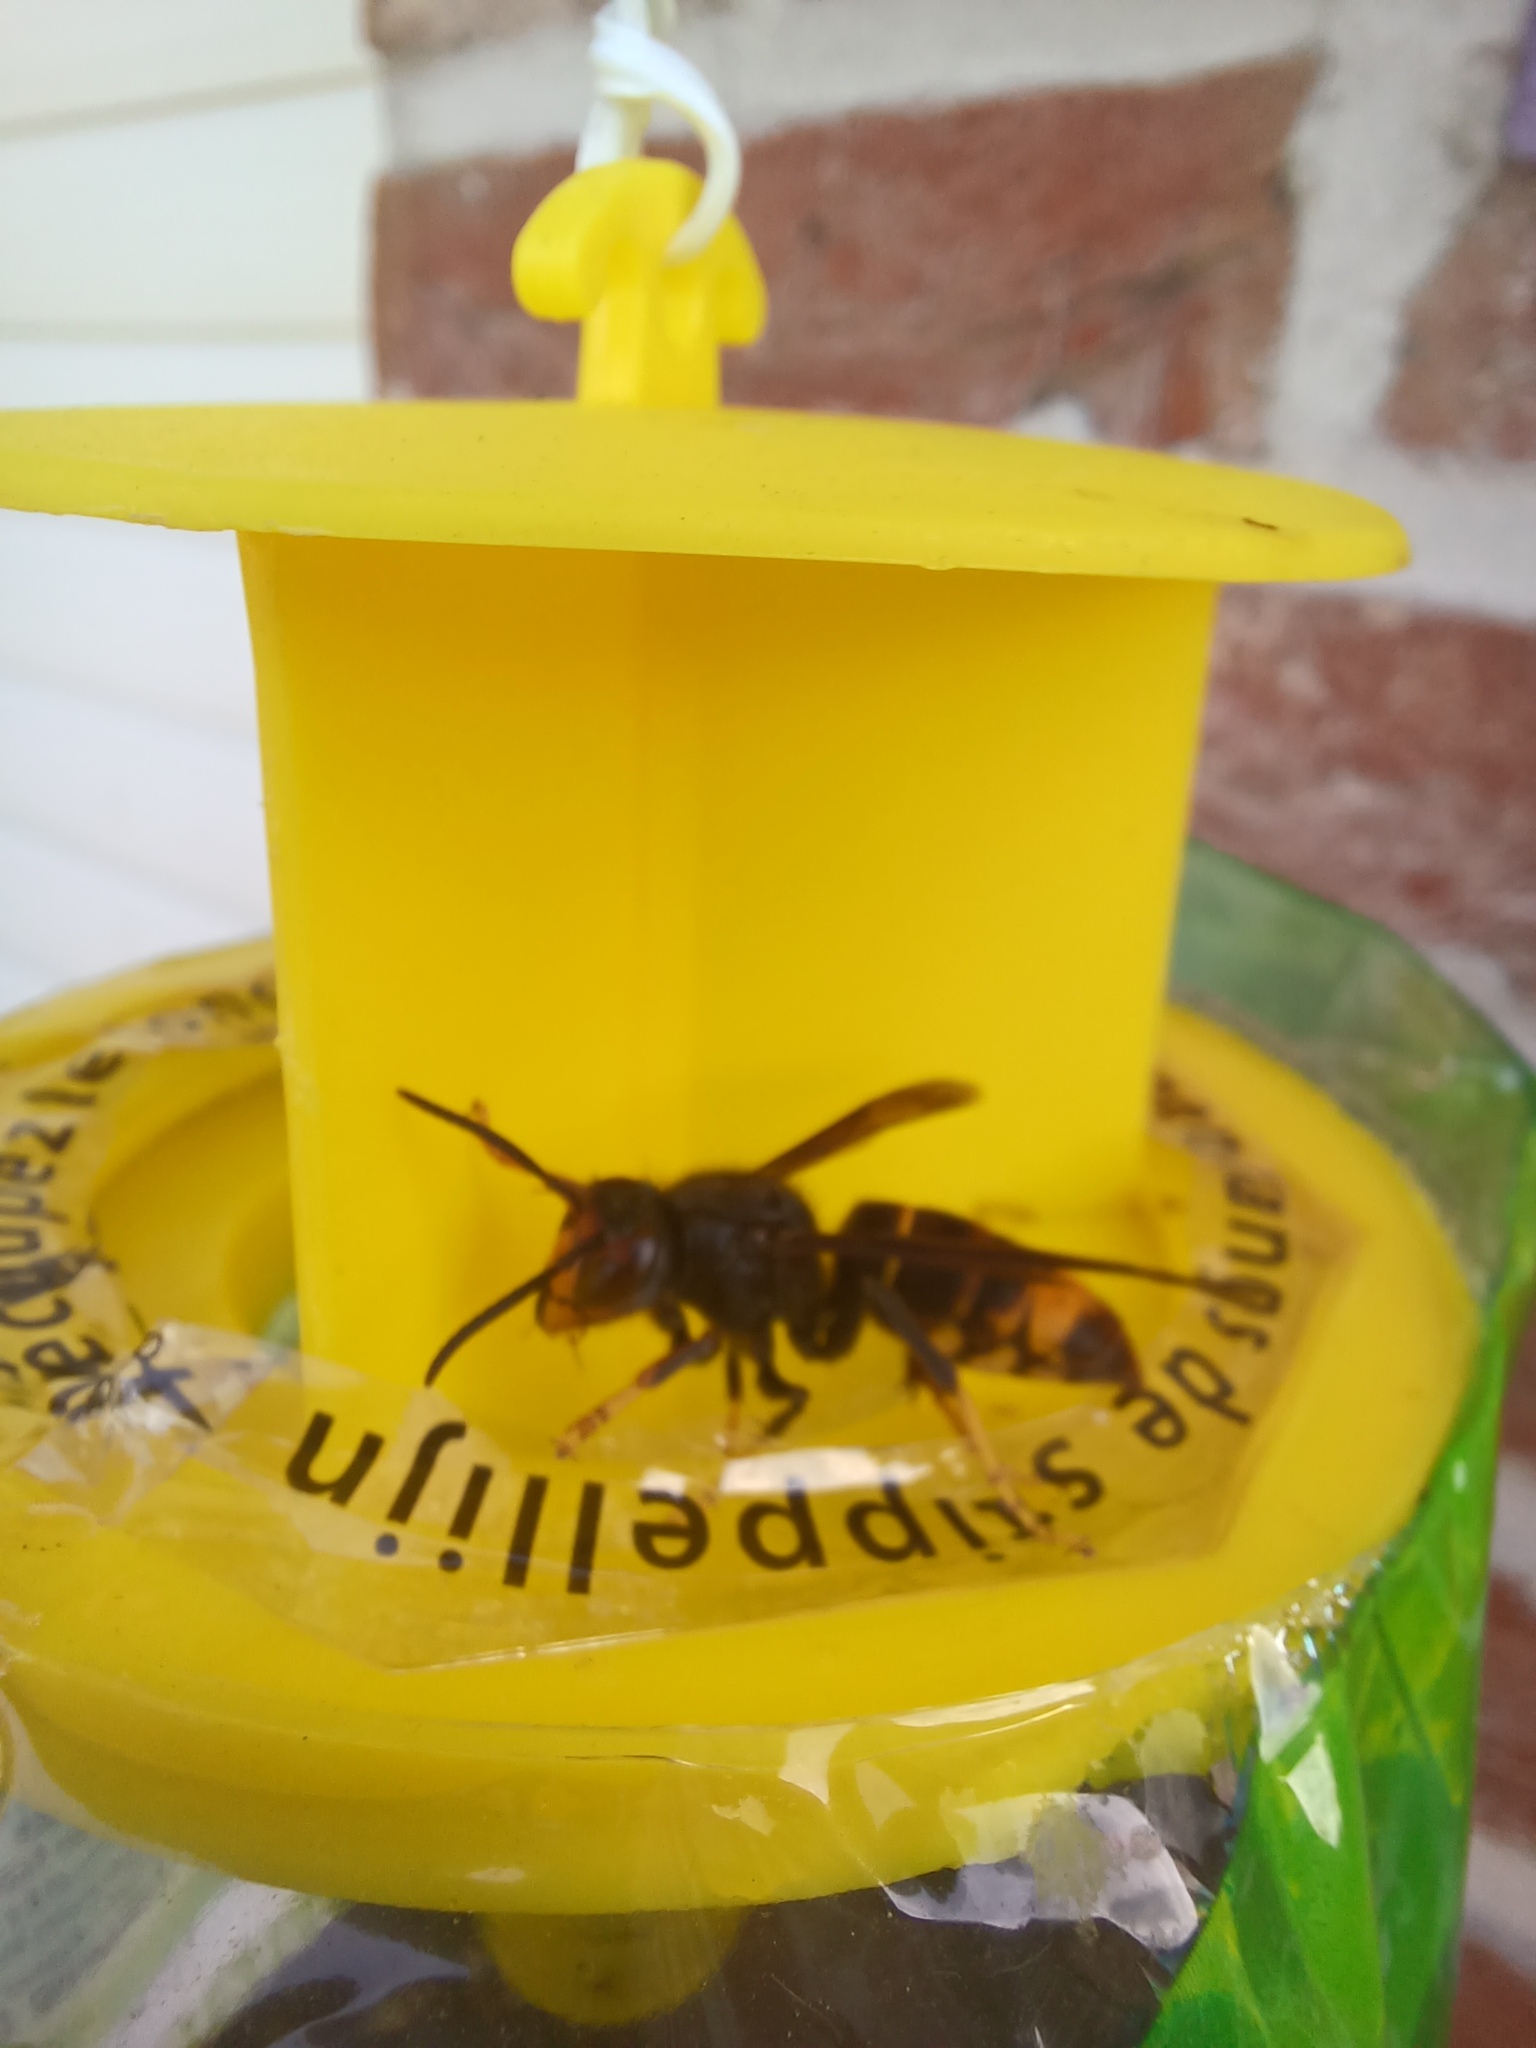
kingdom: Animalia
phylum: Arthropoda
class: Insecta
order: Hymenoptera
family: Vespidae
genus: Vespa
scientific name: Vespa velutina
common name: Asian hornet
